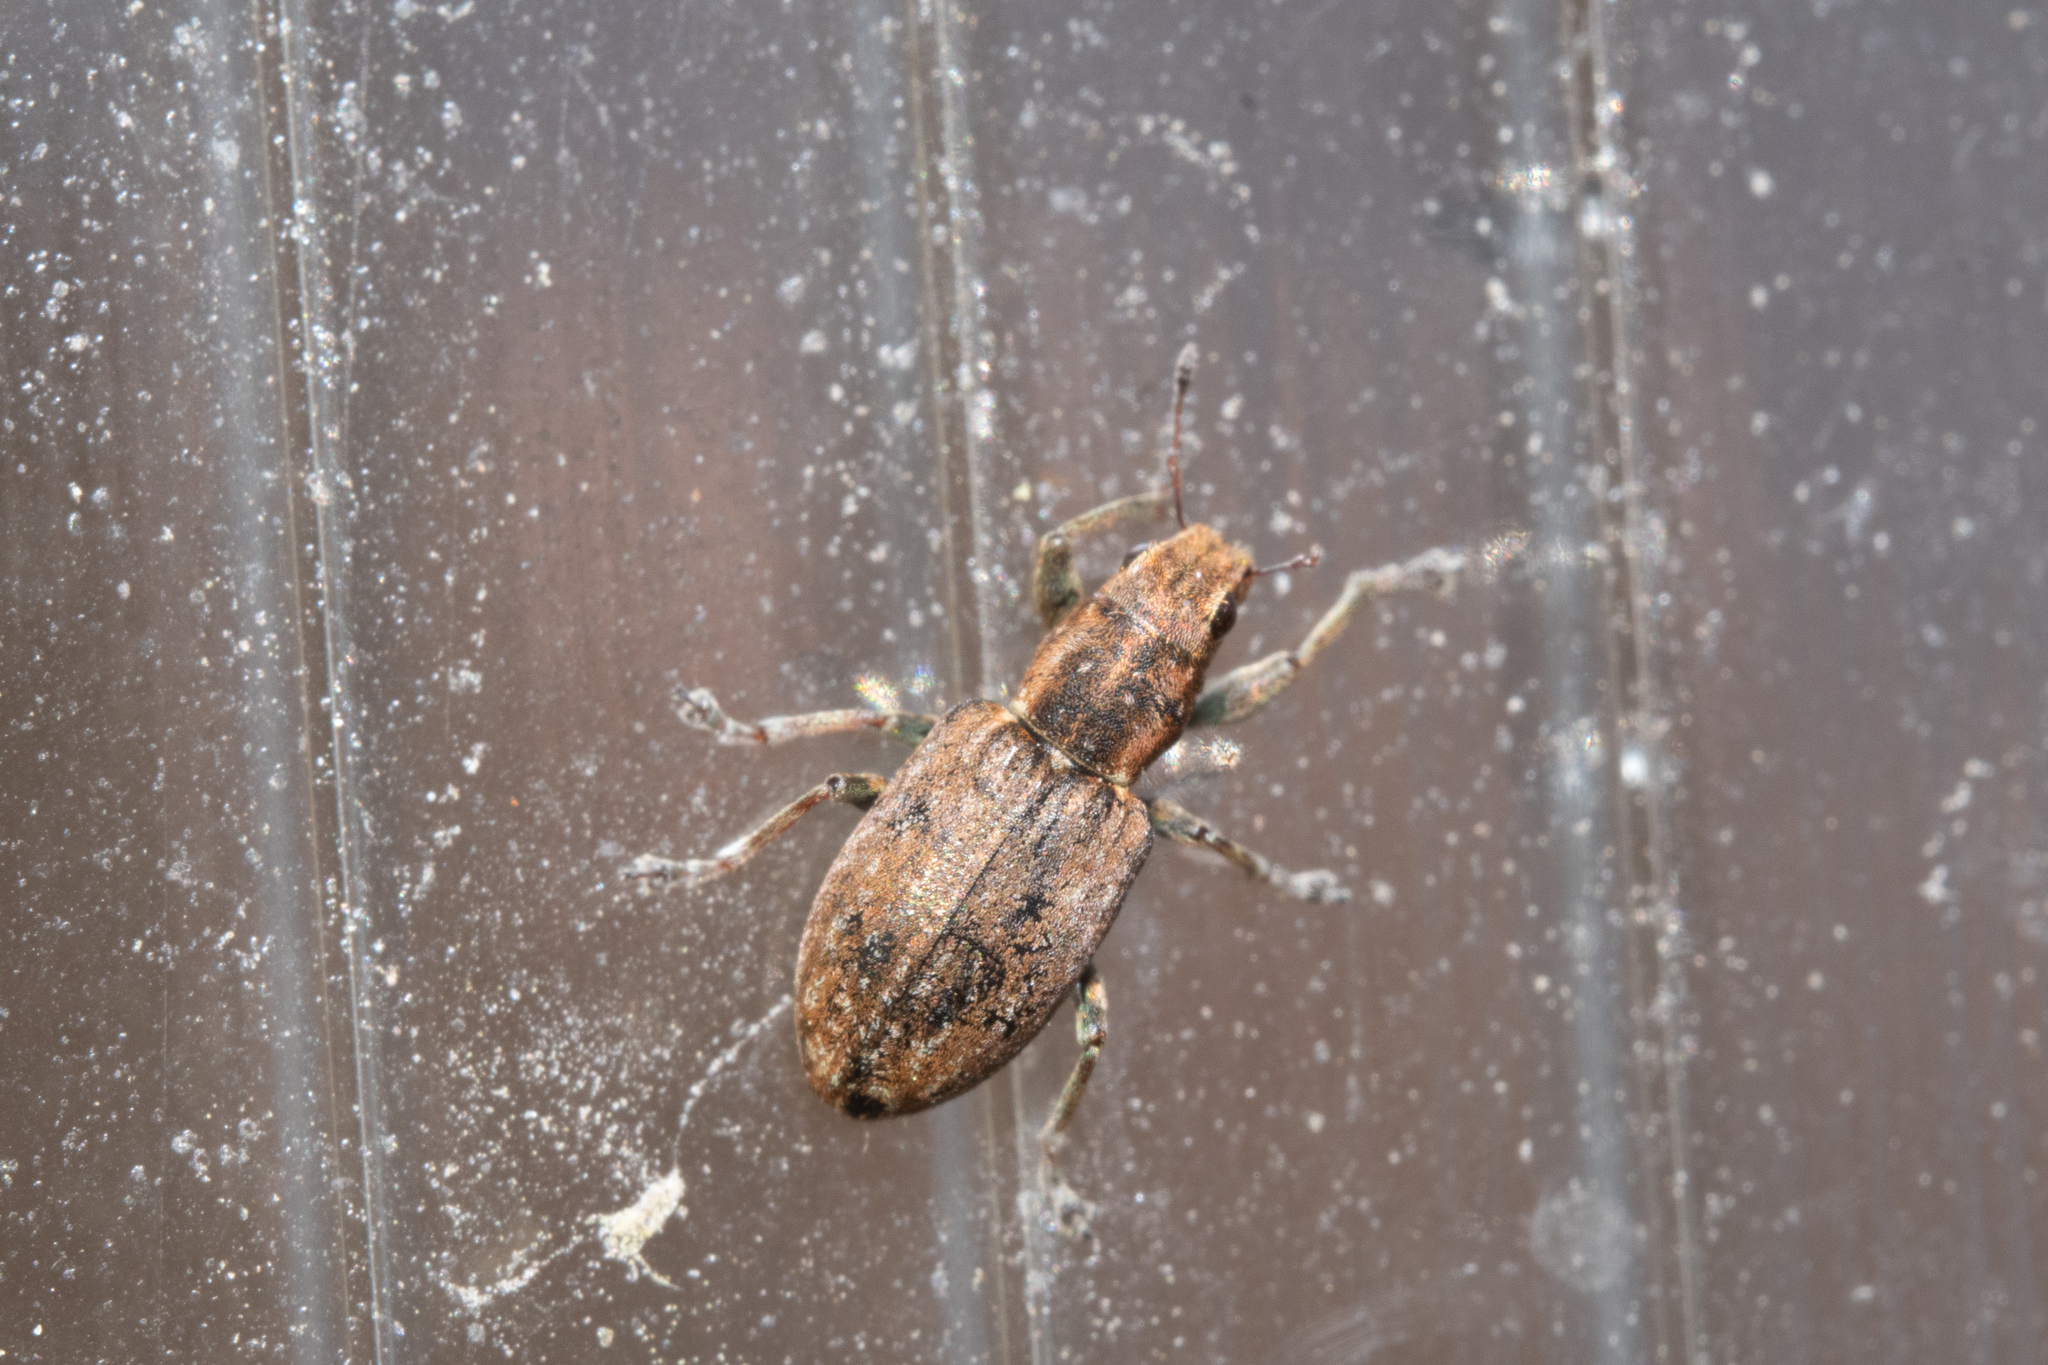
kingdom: Animalia
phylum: Arthropoda
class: Insecta
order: Coleoptera
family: Curculionidae
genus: Sitona
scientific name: Sitona obsoletus
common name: Weevil
